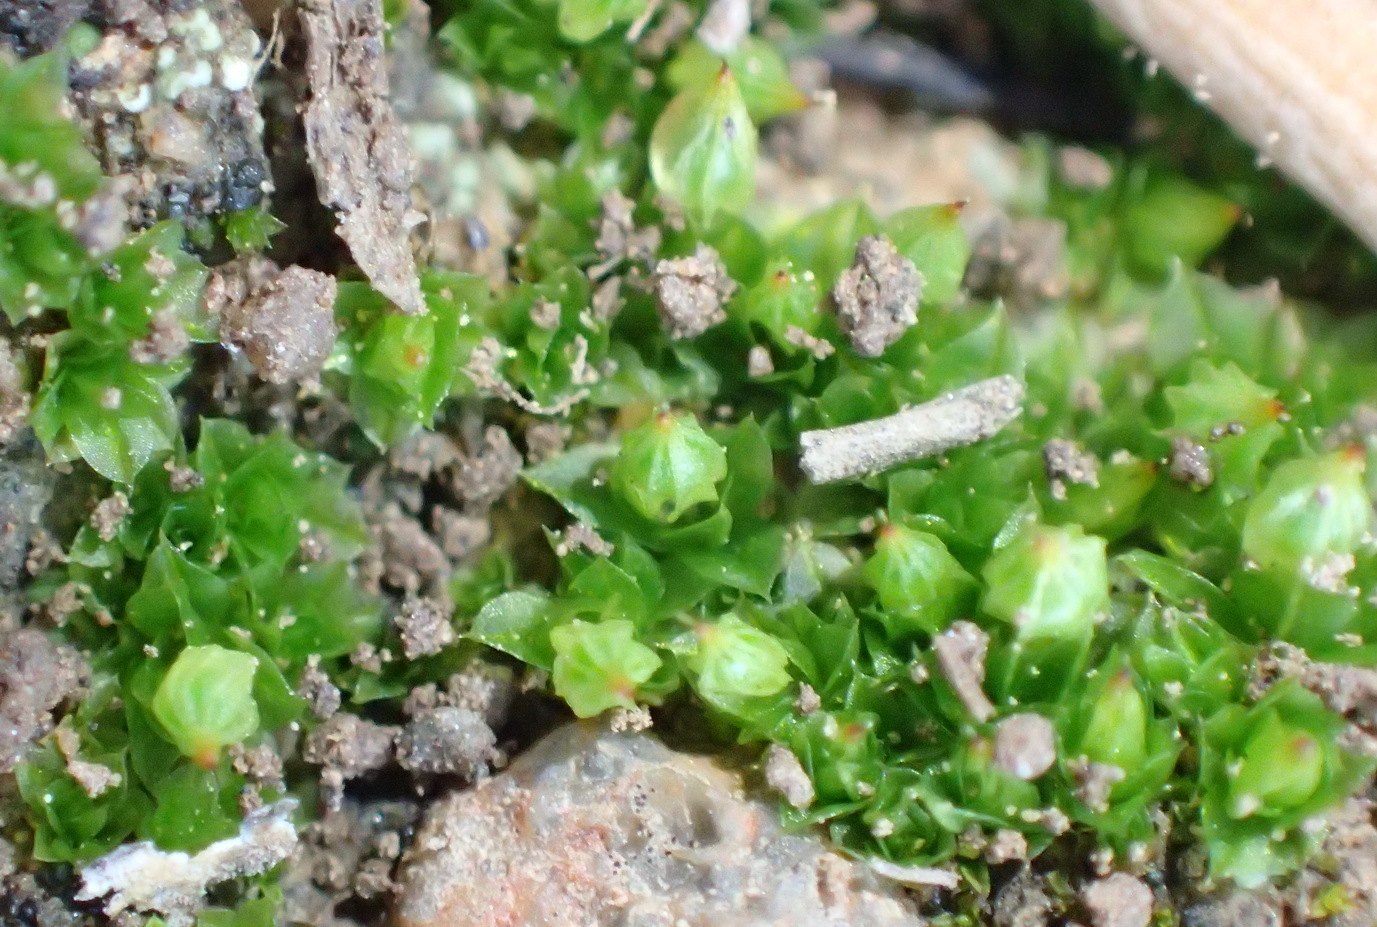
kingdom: Plantae
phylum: Bryophyta
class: Bryopsida
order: Funariales
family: Funariaceae
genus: Goniomitrium
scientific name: Goniomitrium acuminatum
